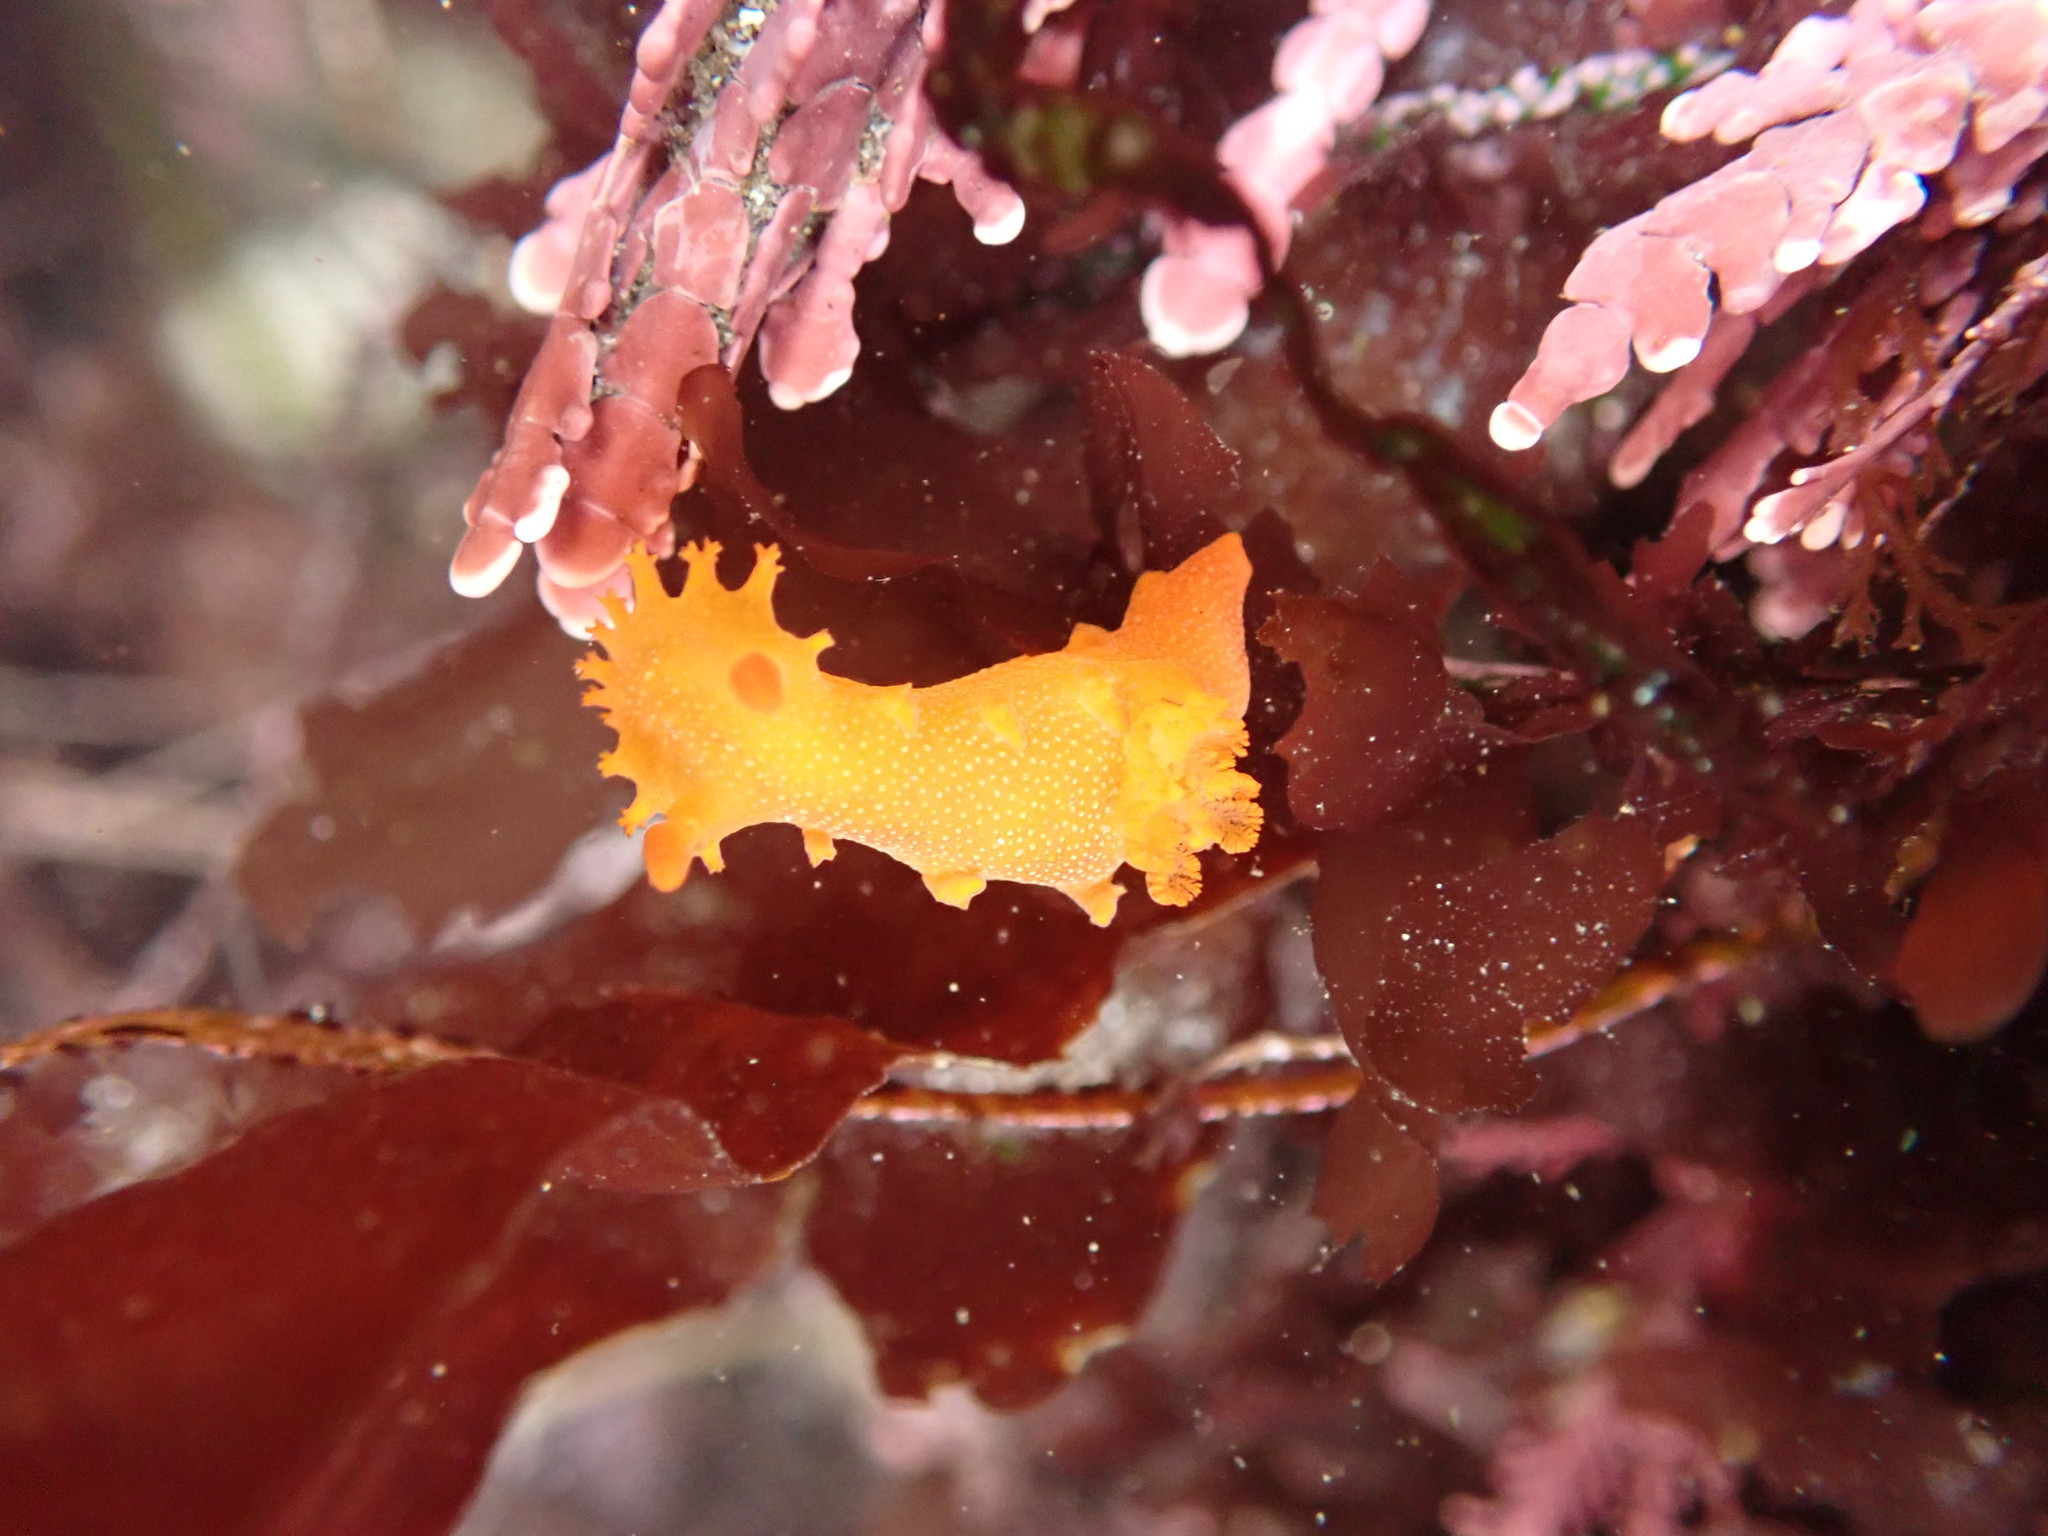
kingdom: Animalia
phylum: Mollusca
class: Gastropoda
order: Nudibranchia
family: Polyceridae
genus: Triopha
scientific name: Triopha maculata
